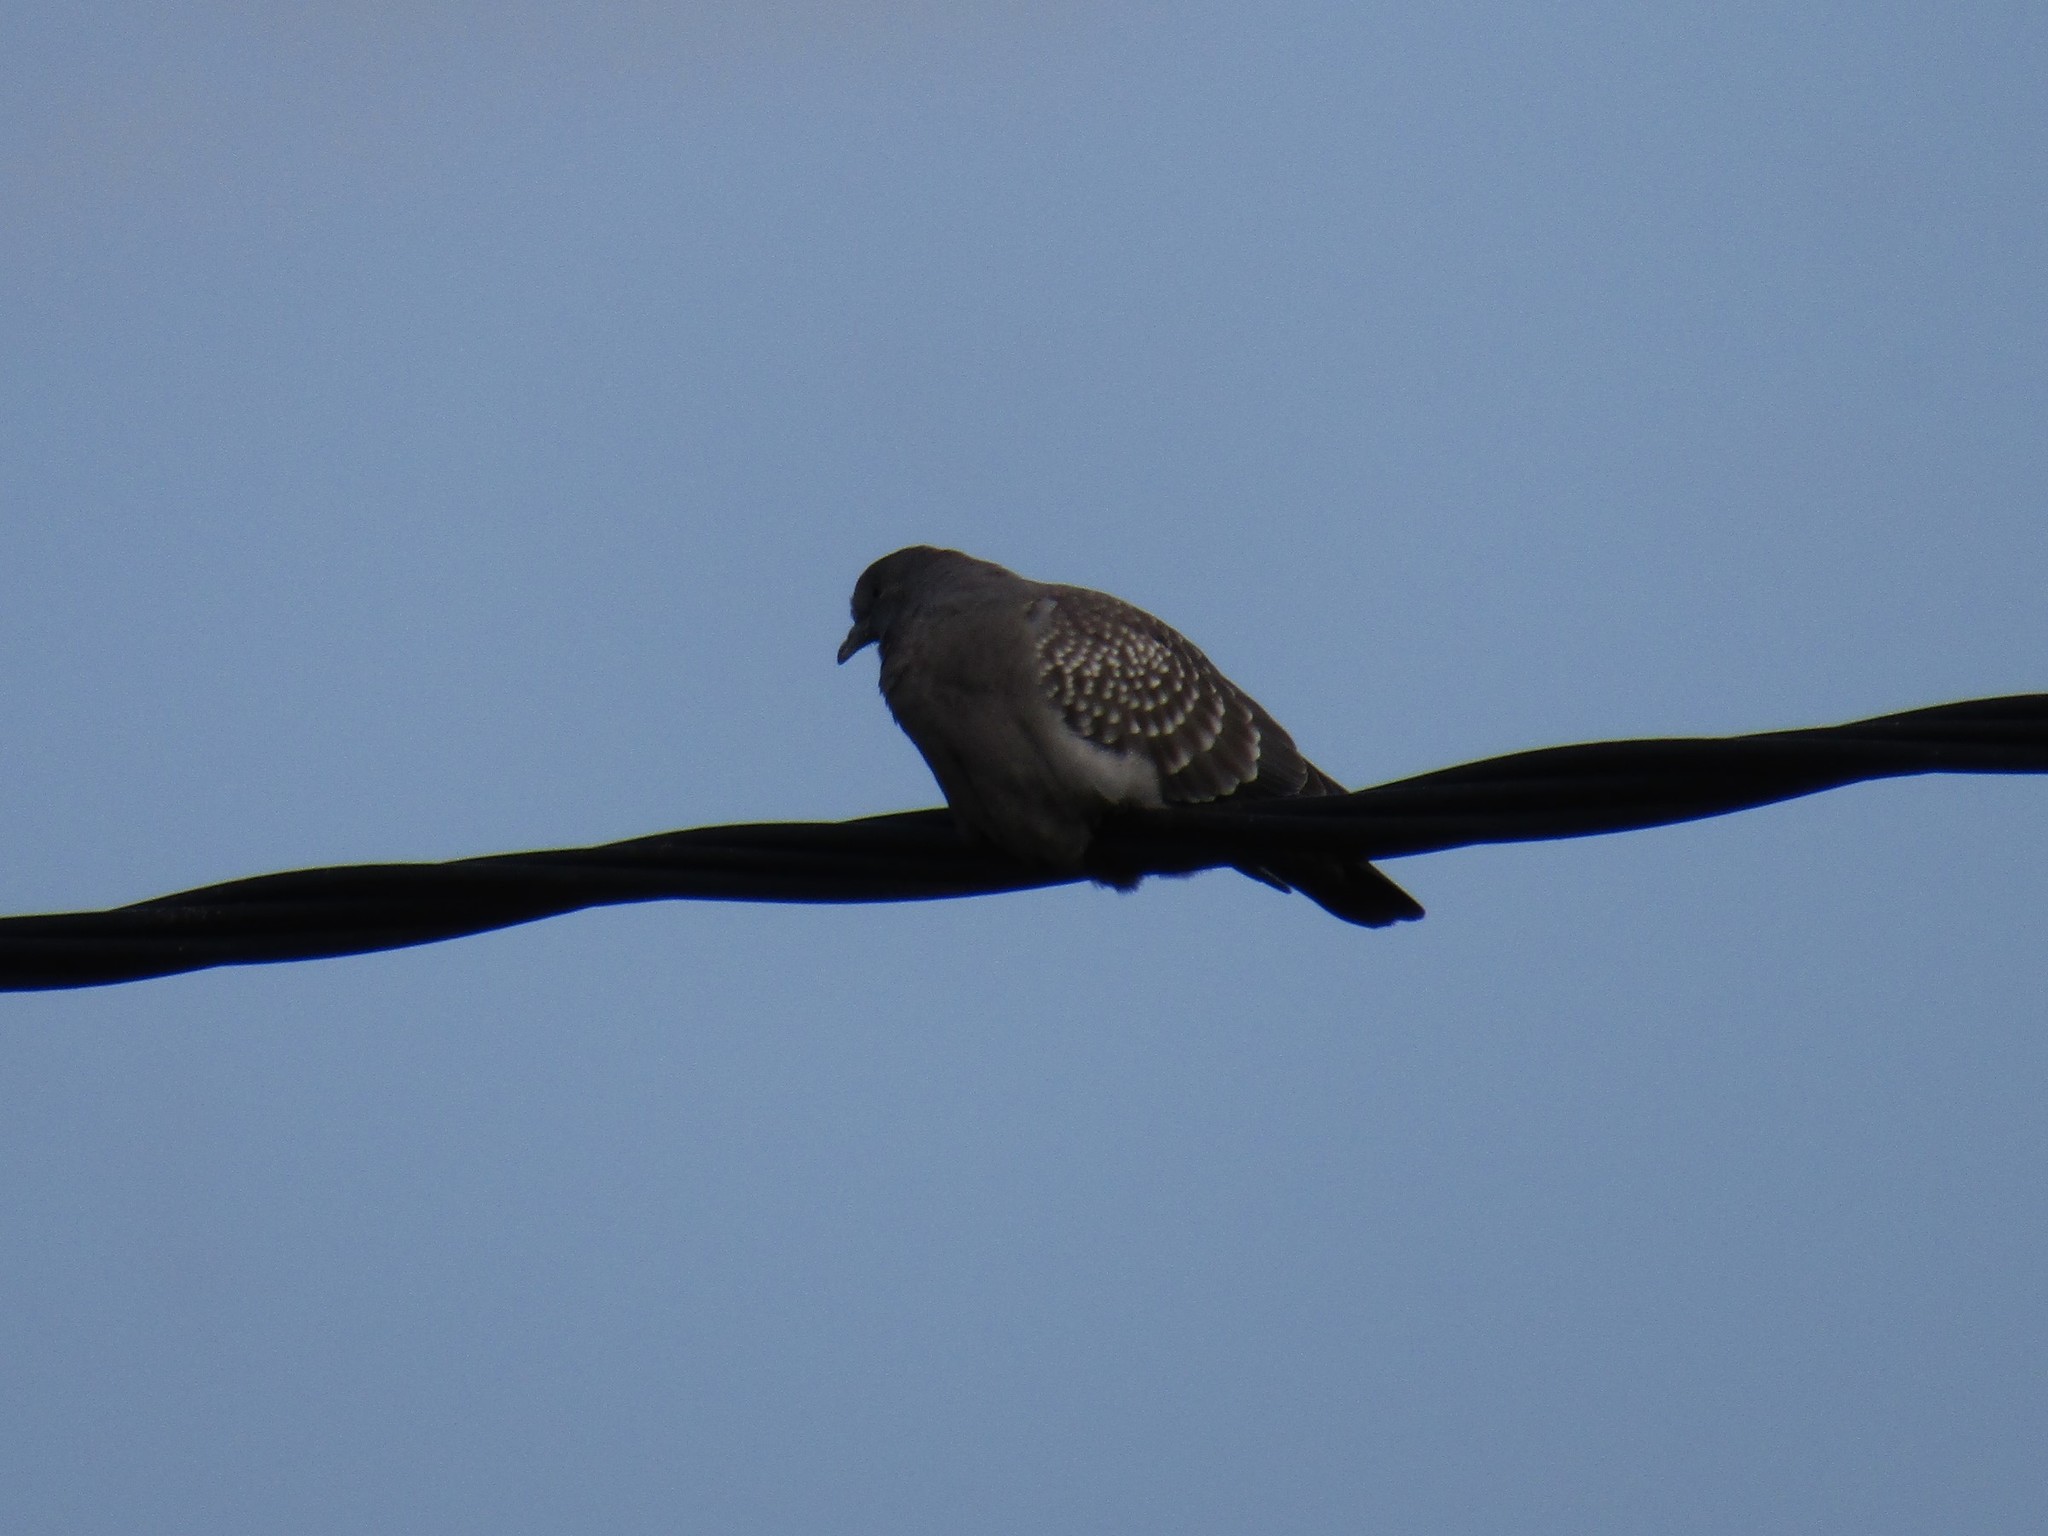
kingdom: Animalia
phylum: Chordata
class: Aves
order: Columbiformes
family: Columbidae
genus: Patagioenas
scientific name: Patagioenas maculosa
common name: Spot-winged pigeon
